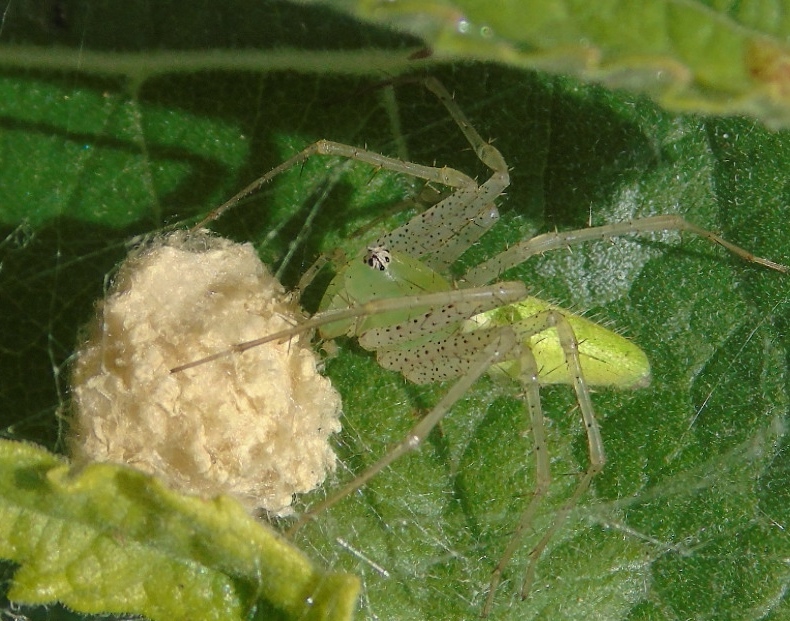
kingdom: Animalia
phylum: Arthropoda
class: Arachnida
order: Araneae
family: Oxyopidae
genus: Peucetia
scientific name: Peucetia viridans
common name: Lynx spiders
